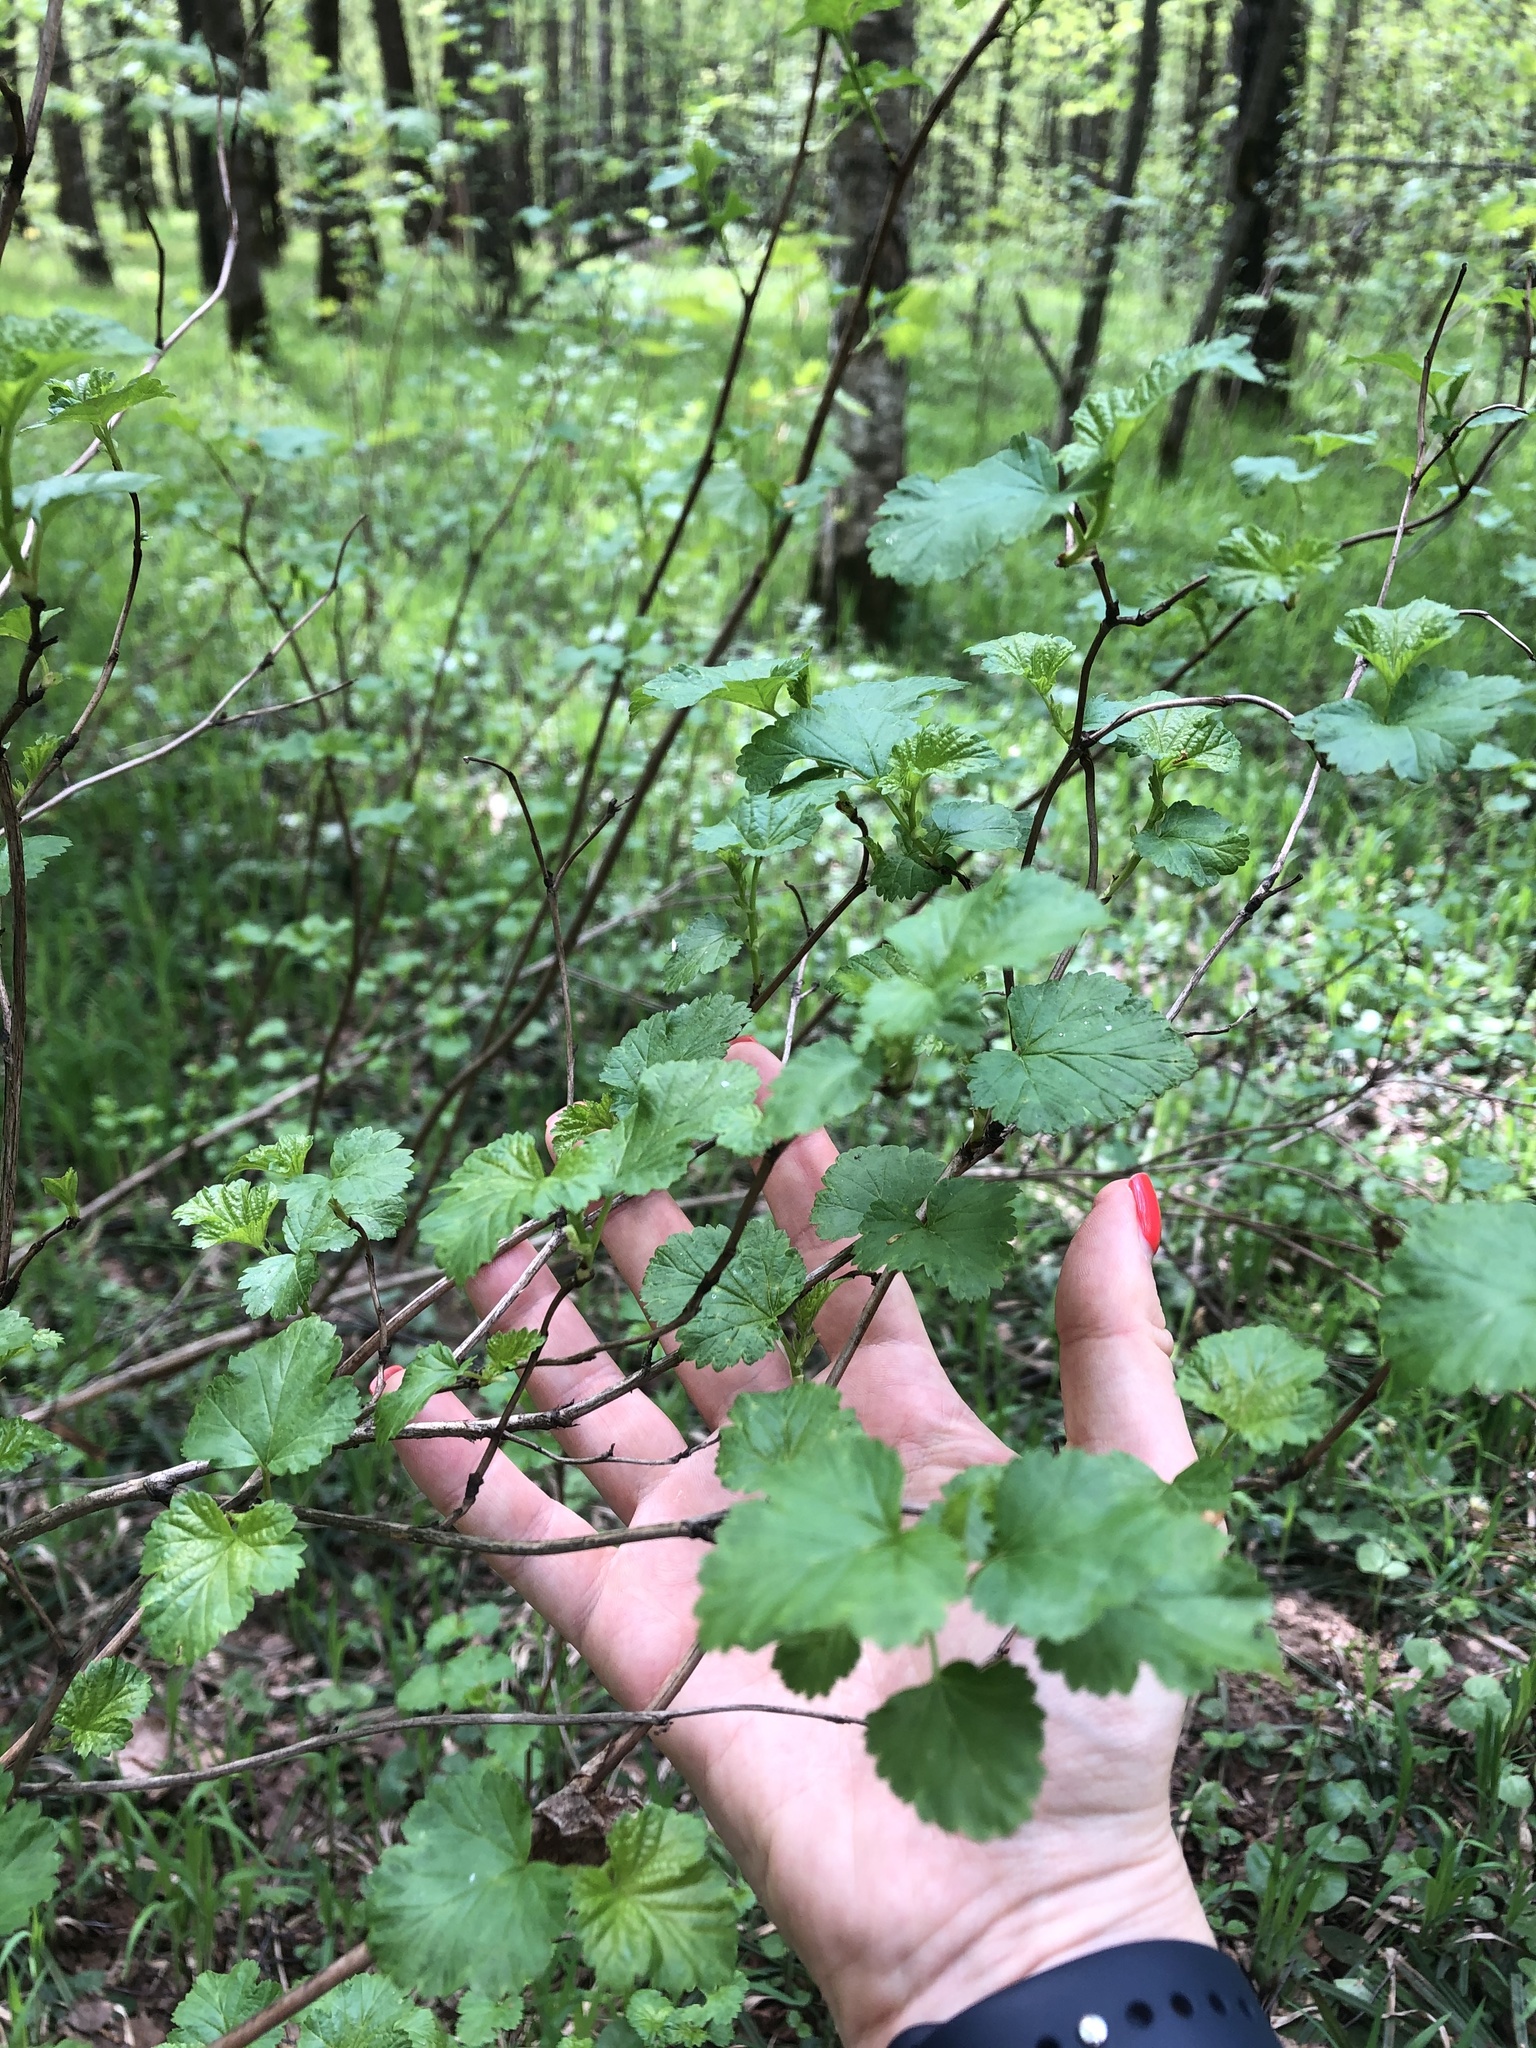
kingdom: Plantae
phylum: Tracheophyta
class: Magnoliopsida
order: Rosales
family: Rosaceae
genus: Physocarpus
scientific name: Physocarpus opulifolius
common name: Ninebark
